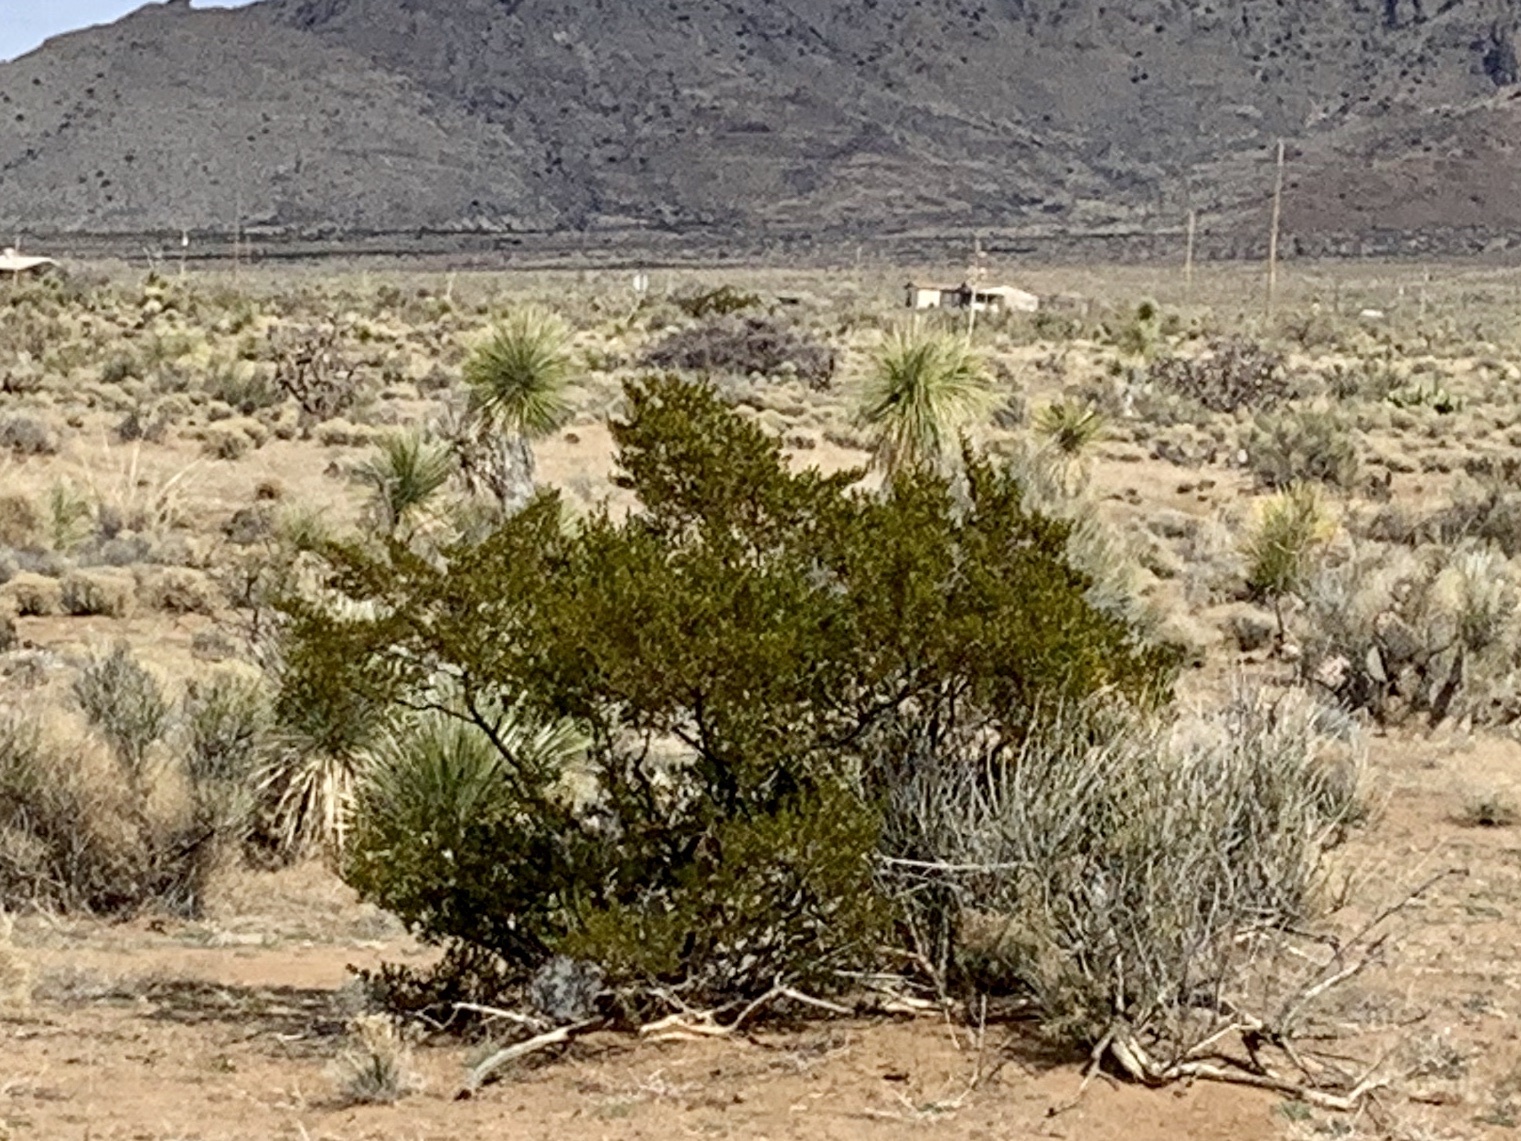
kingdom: Plantae
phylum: Tracheophyta
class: Magnoliopsida
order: Zygophyllales
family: Zygophyllaceae
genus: Larrea
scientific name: Larrea tridentata
